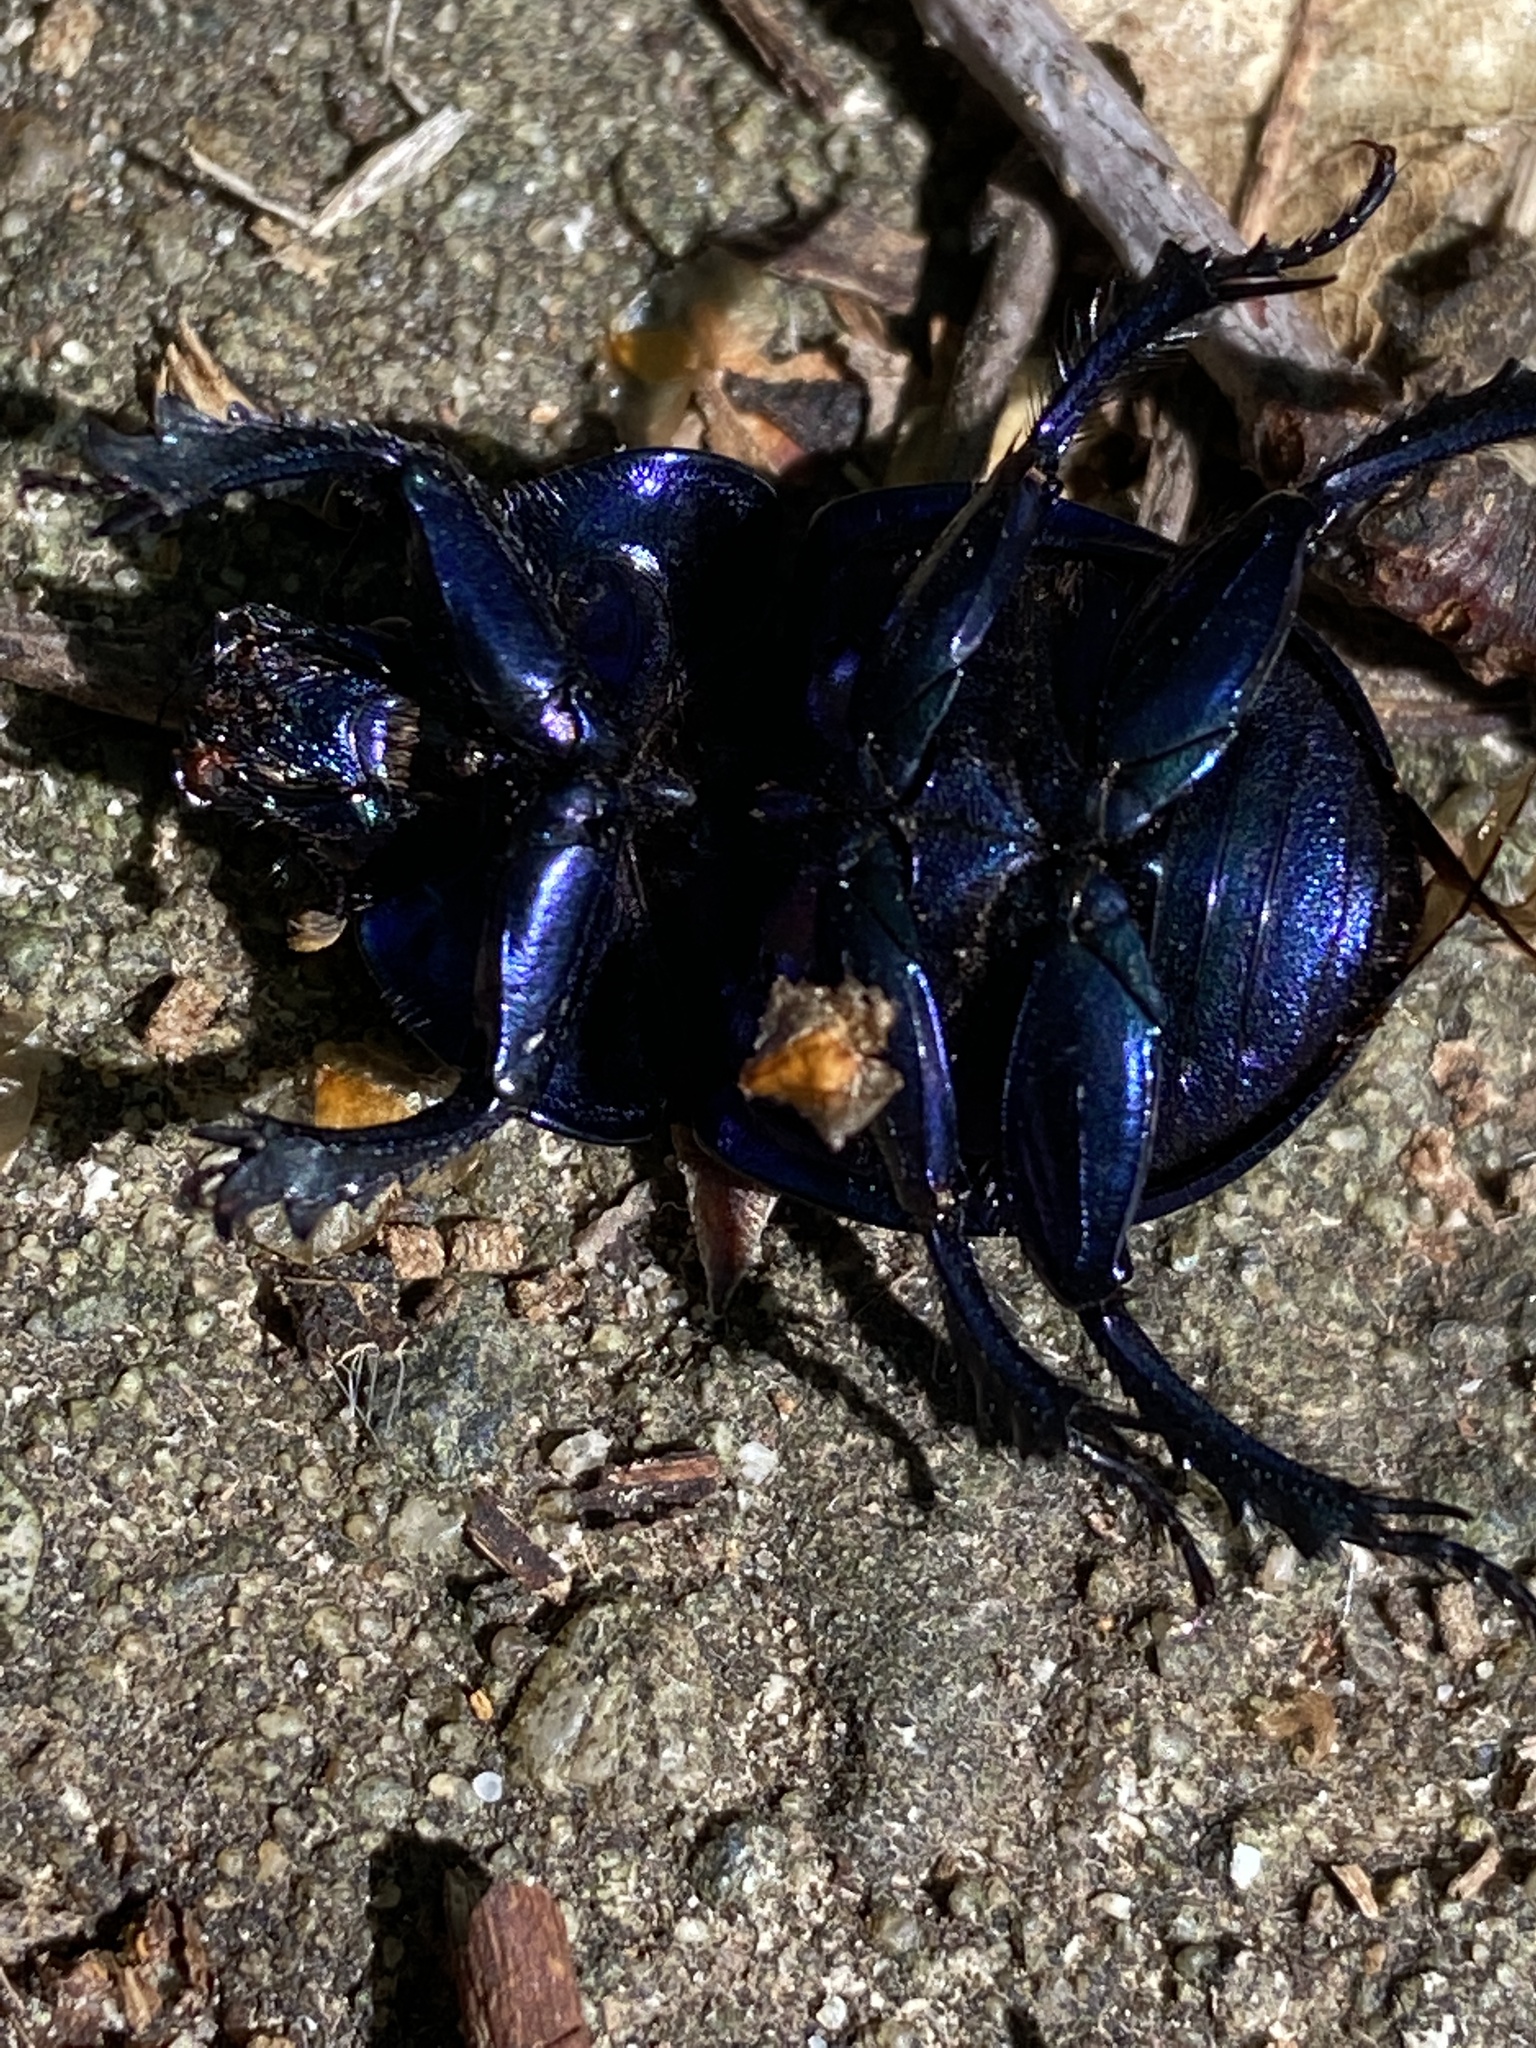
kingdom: Animalia
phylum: Arthropoda
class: Insecta
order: Coleoptera
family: Geotrupidae
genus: Trypocopris
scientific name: Trypocopris vernalis
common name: Spring dumbledor
